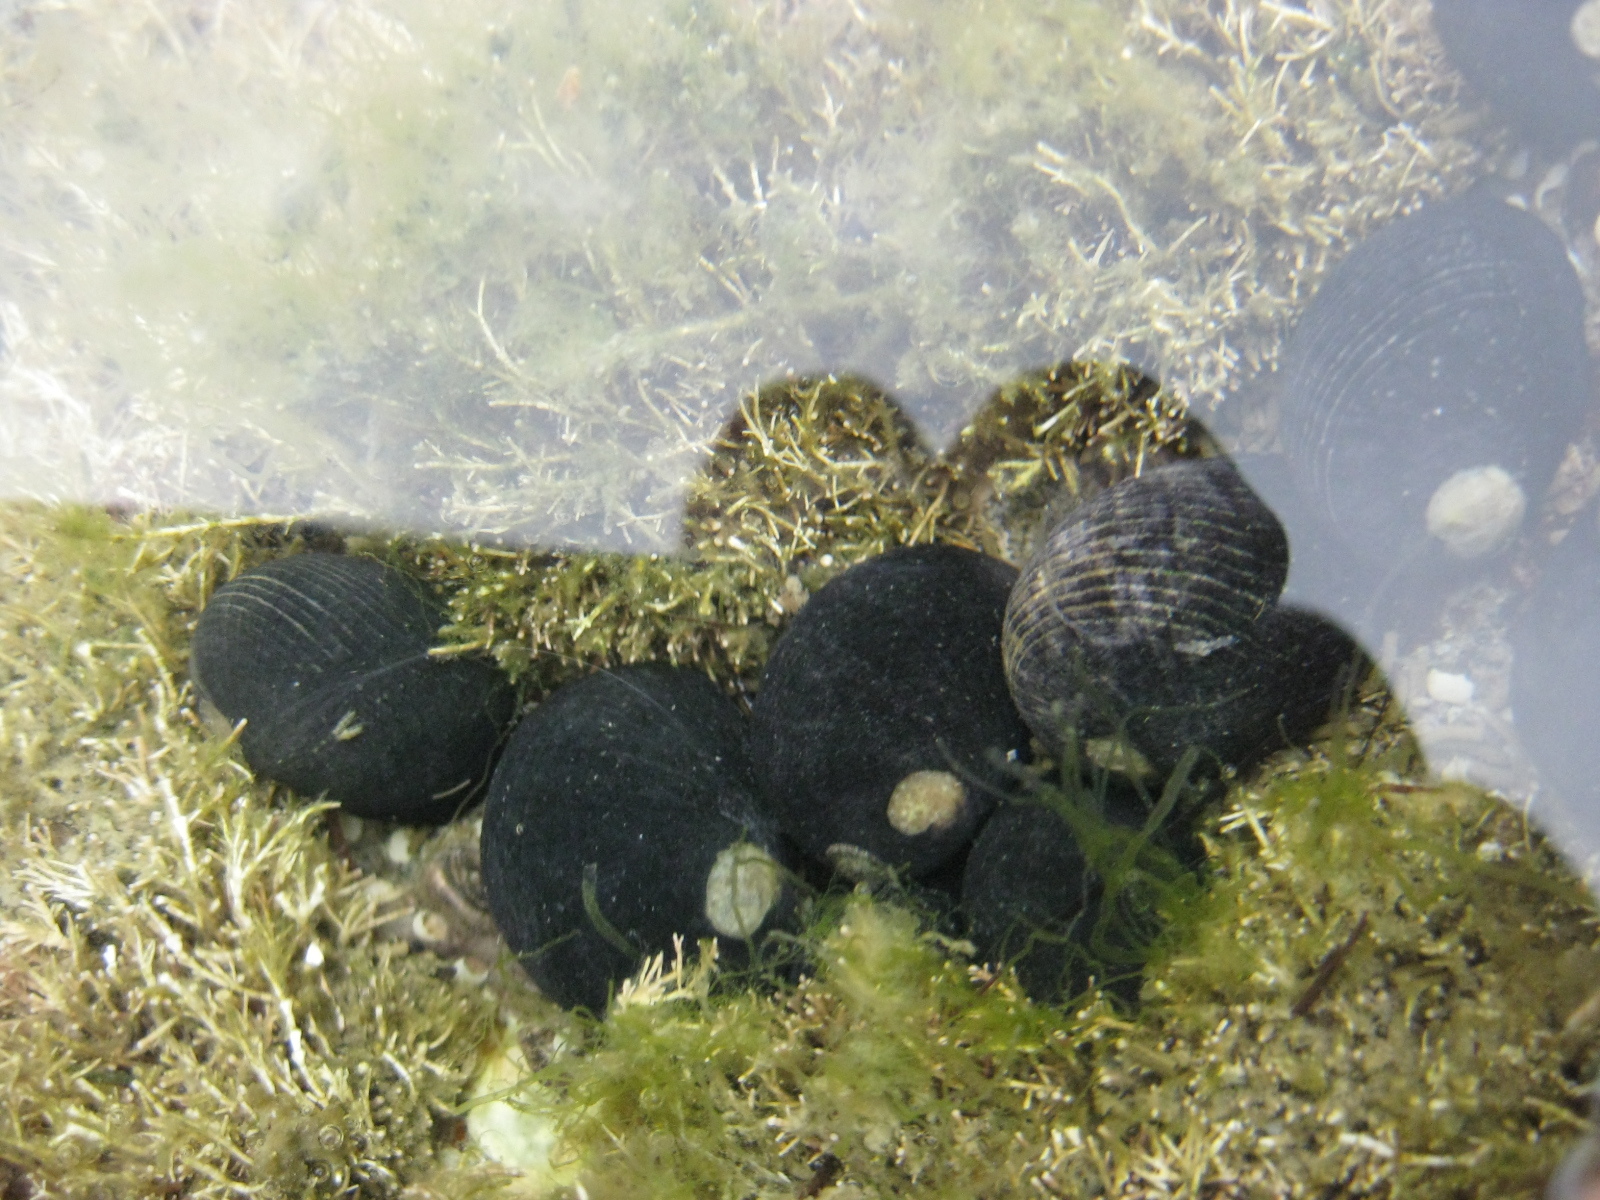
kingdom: Animalia
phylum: Mollusca
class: Gastropoda
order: Cycloneritida
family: Neritidae
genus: Nerita
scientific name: Nerita melanotragus
